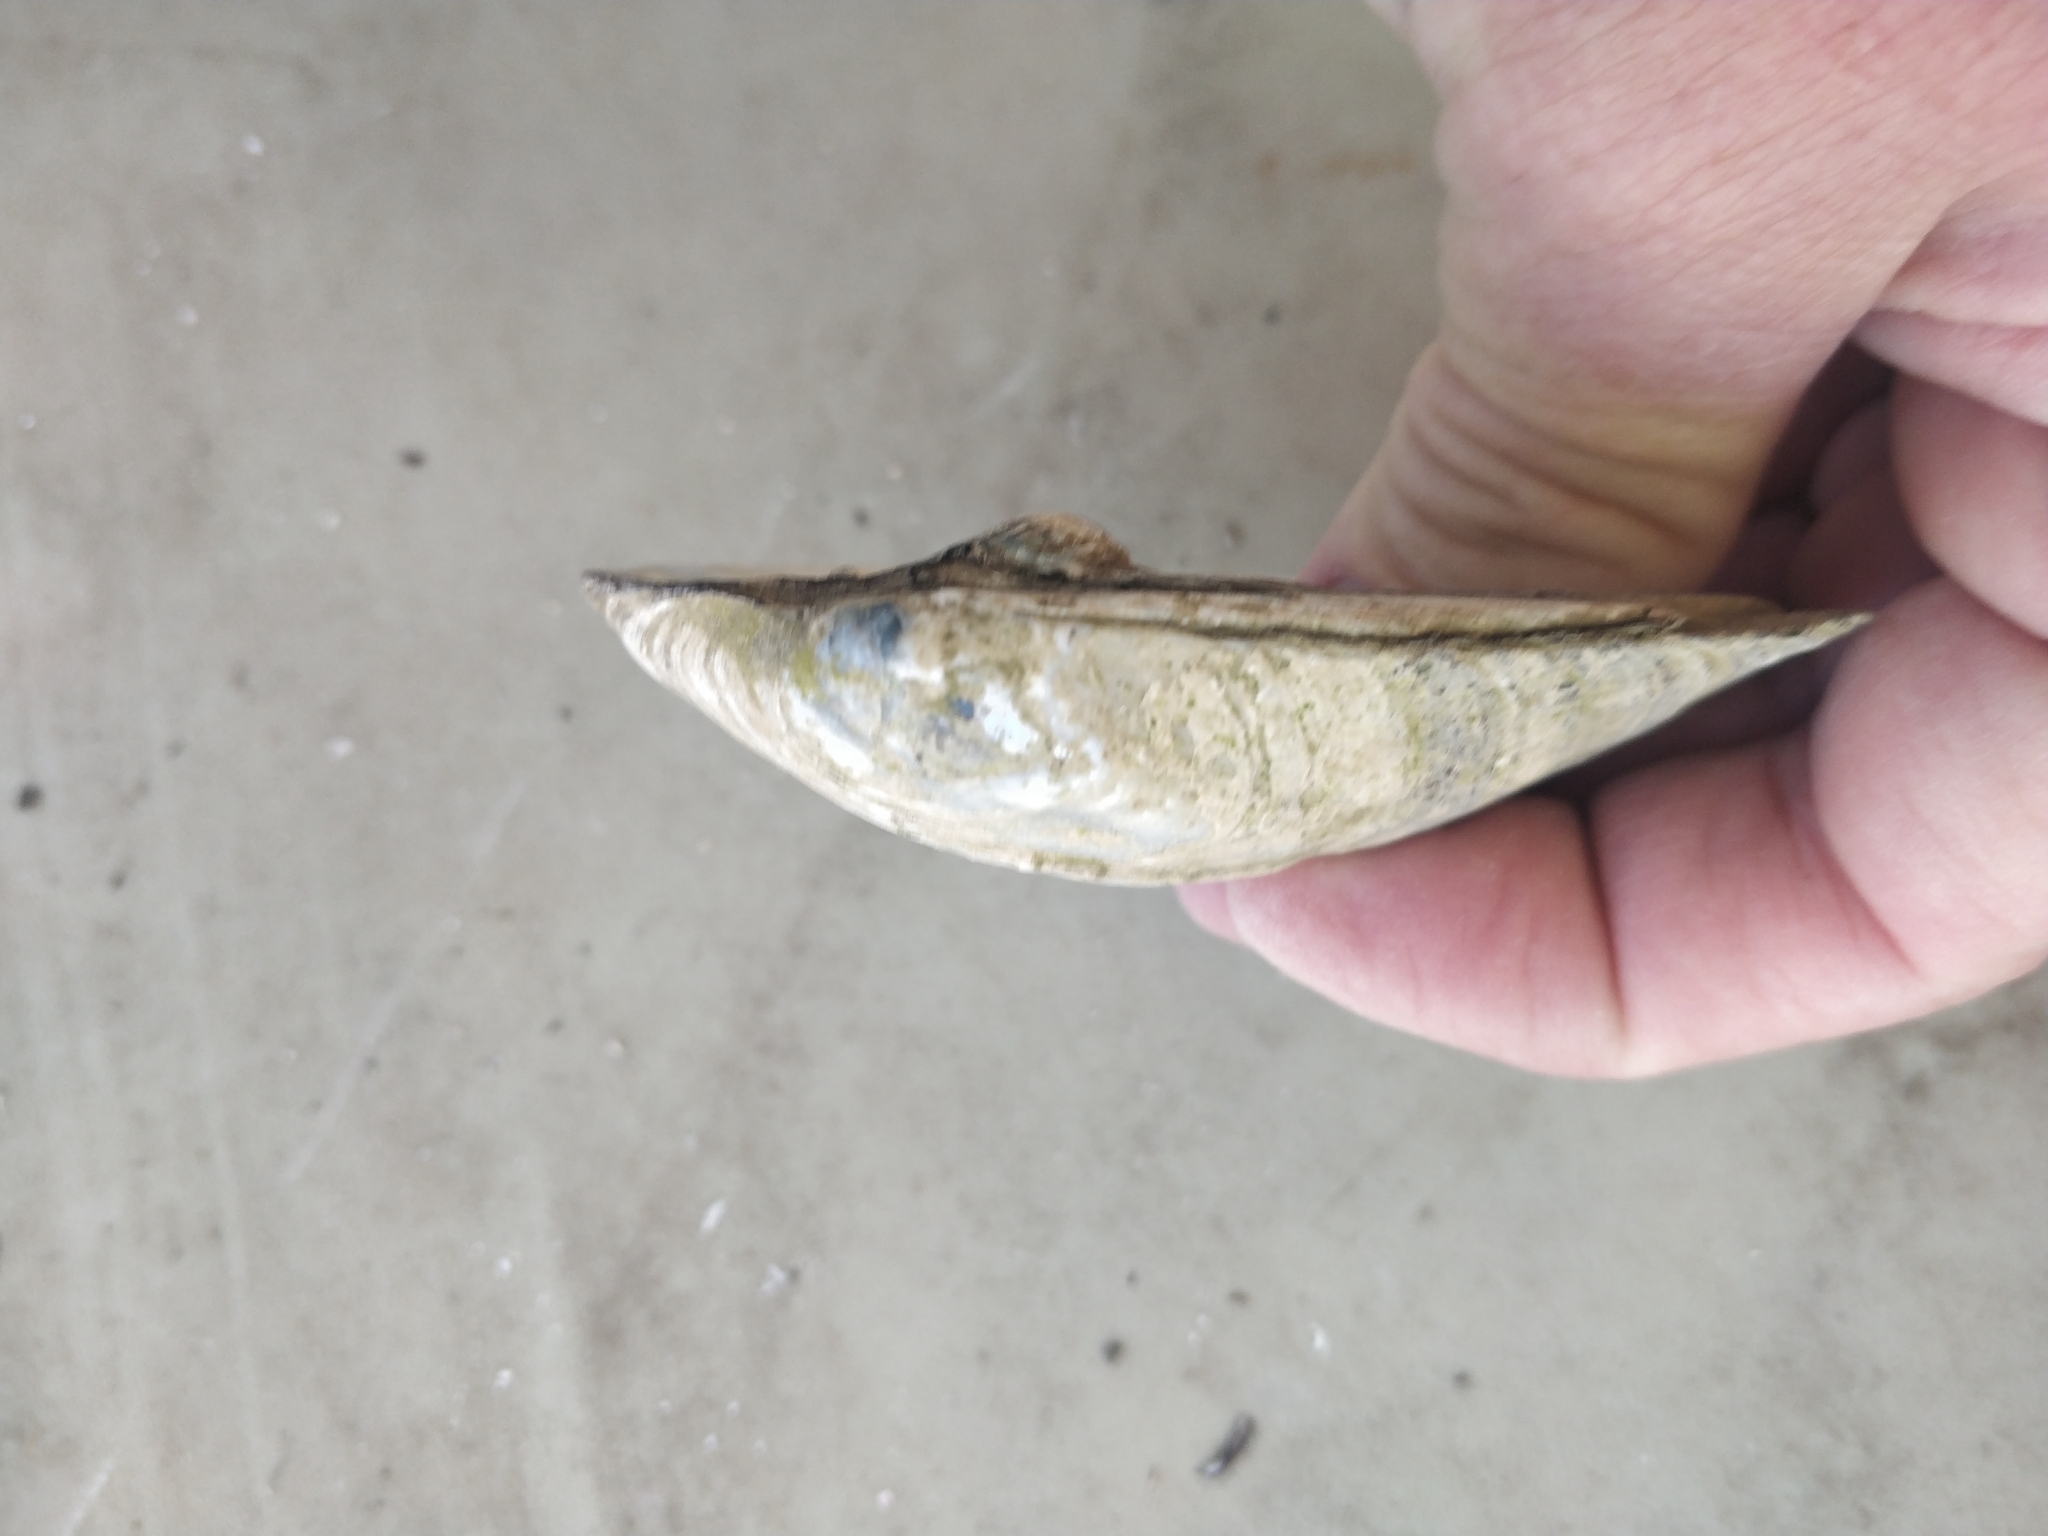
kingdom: Animalia
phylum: Mollusca
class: Bivalvia
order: Unionida
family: Unionidae
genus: Amblema
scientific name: Amblema plicata
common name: Threeridge
